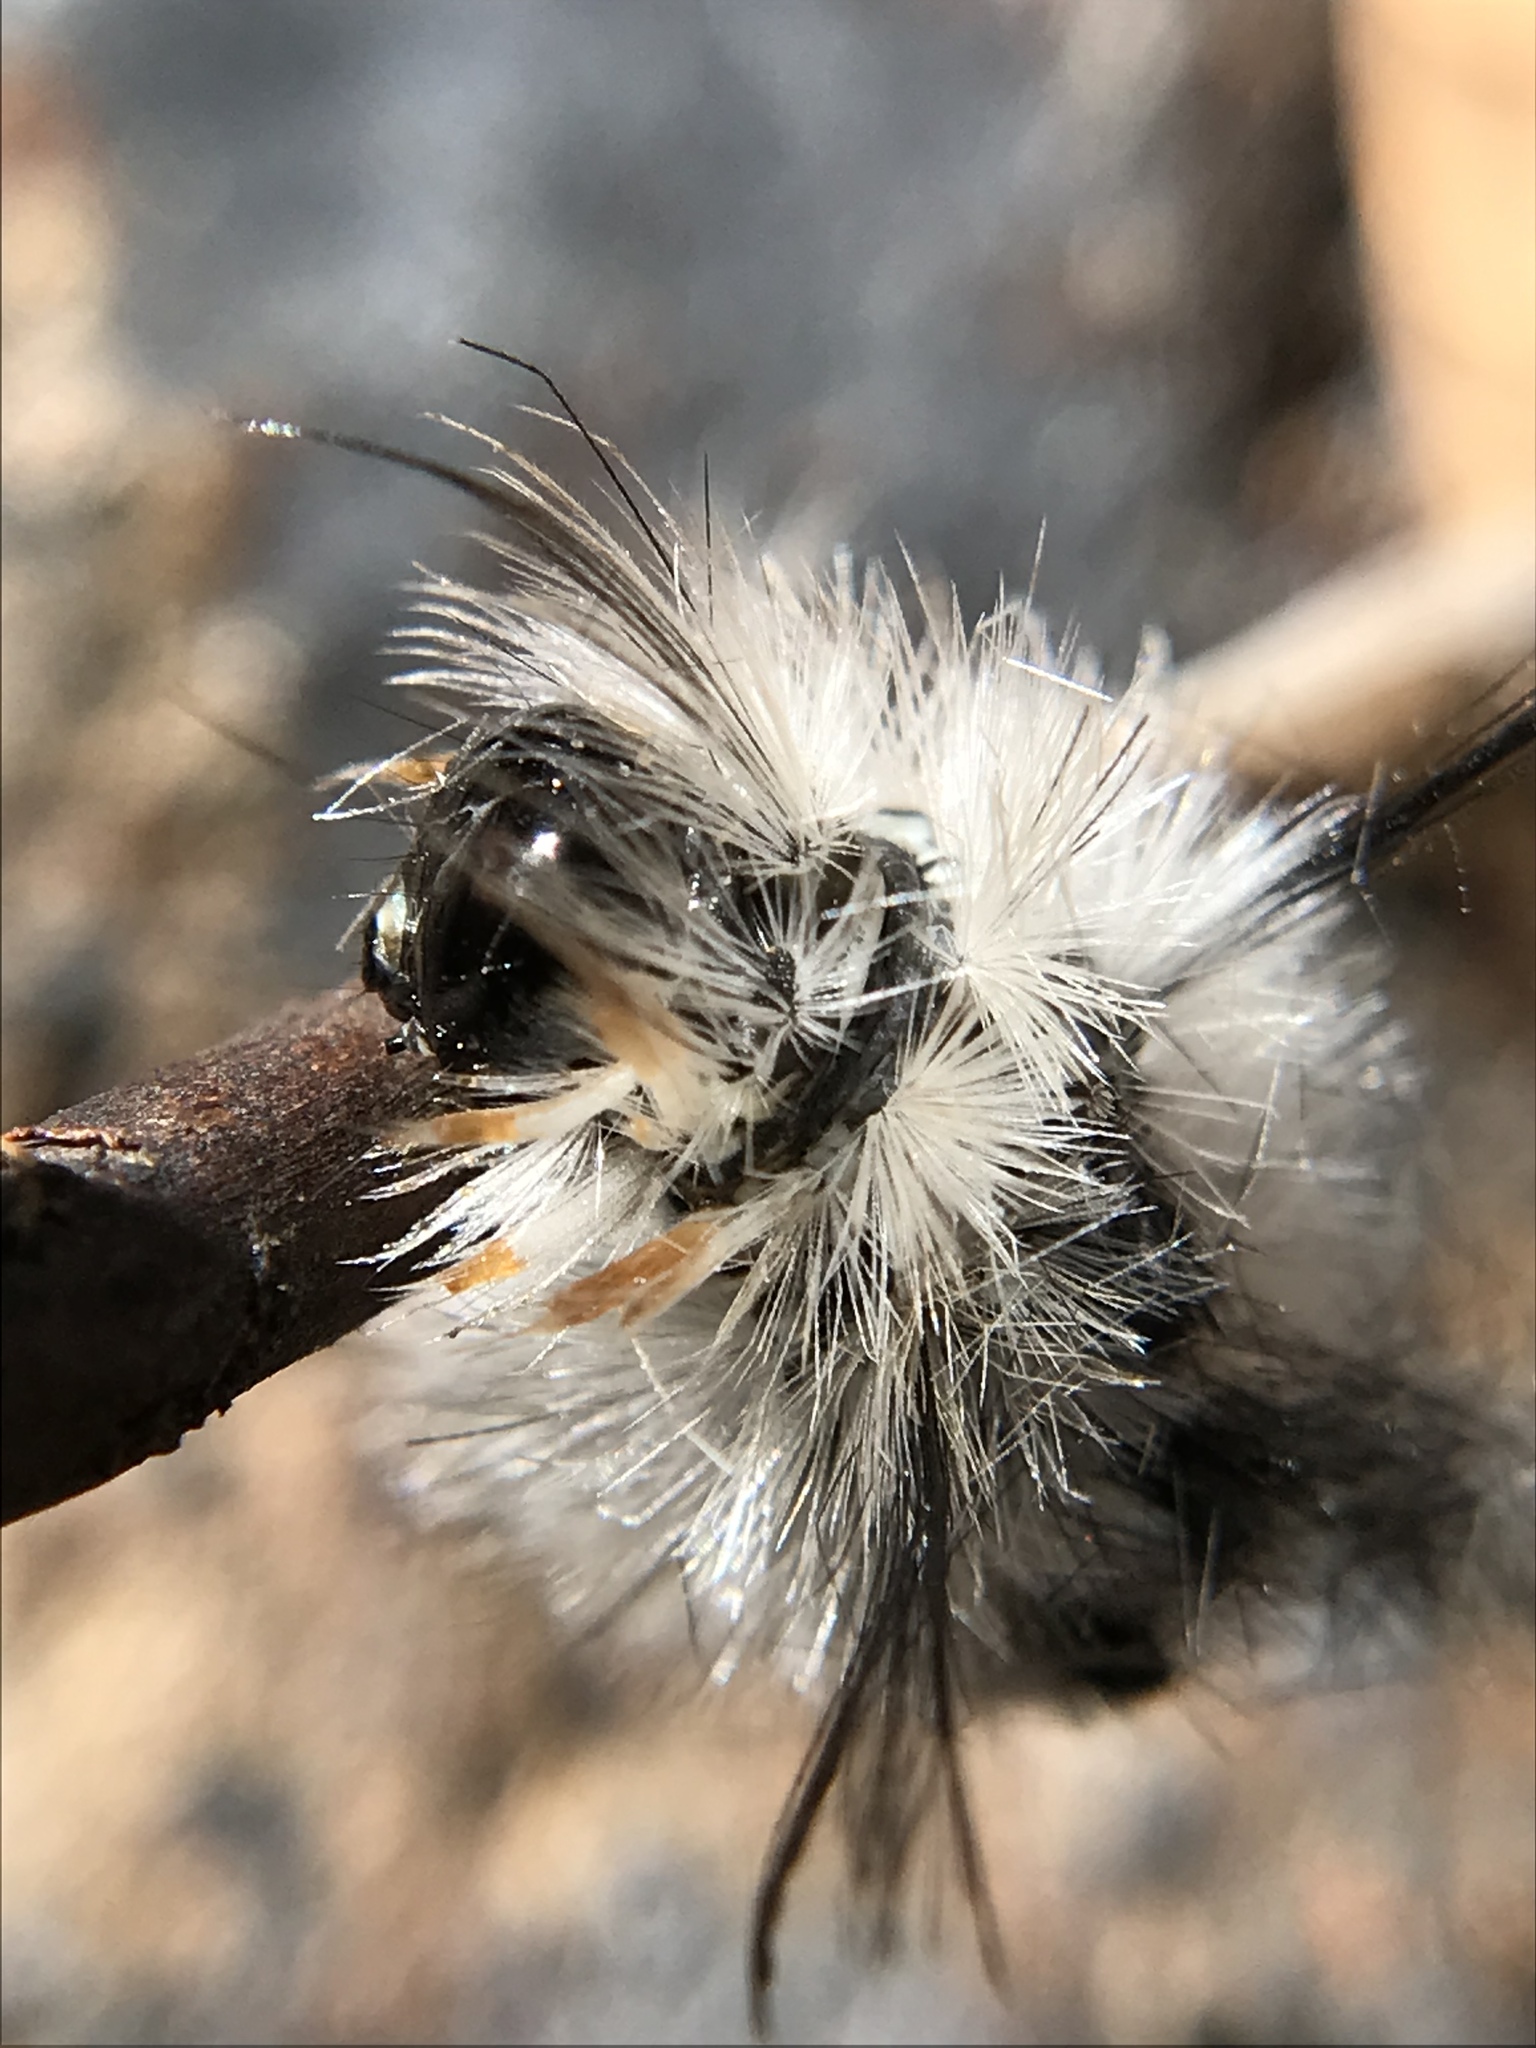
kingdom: Animalia
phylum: Arthropoda
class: Insecta
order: Lepidoptera
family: Erebidae
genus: Lophocampa
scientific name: Lophocampa caryae
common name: Hickory tussock moth
